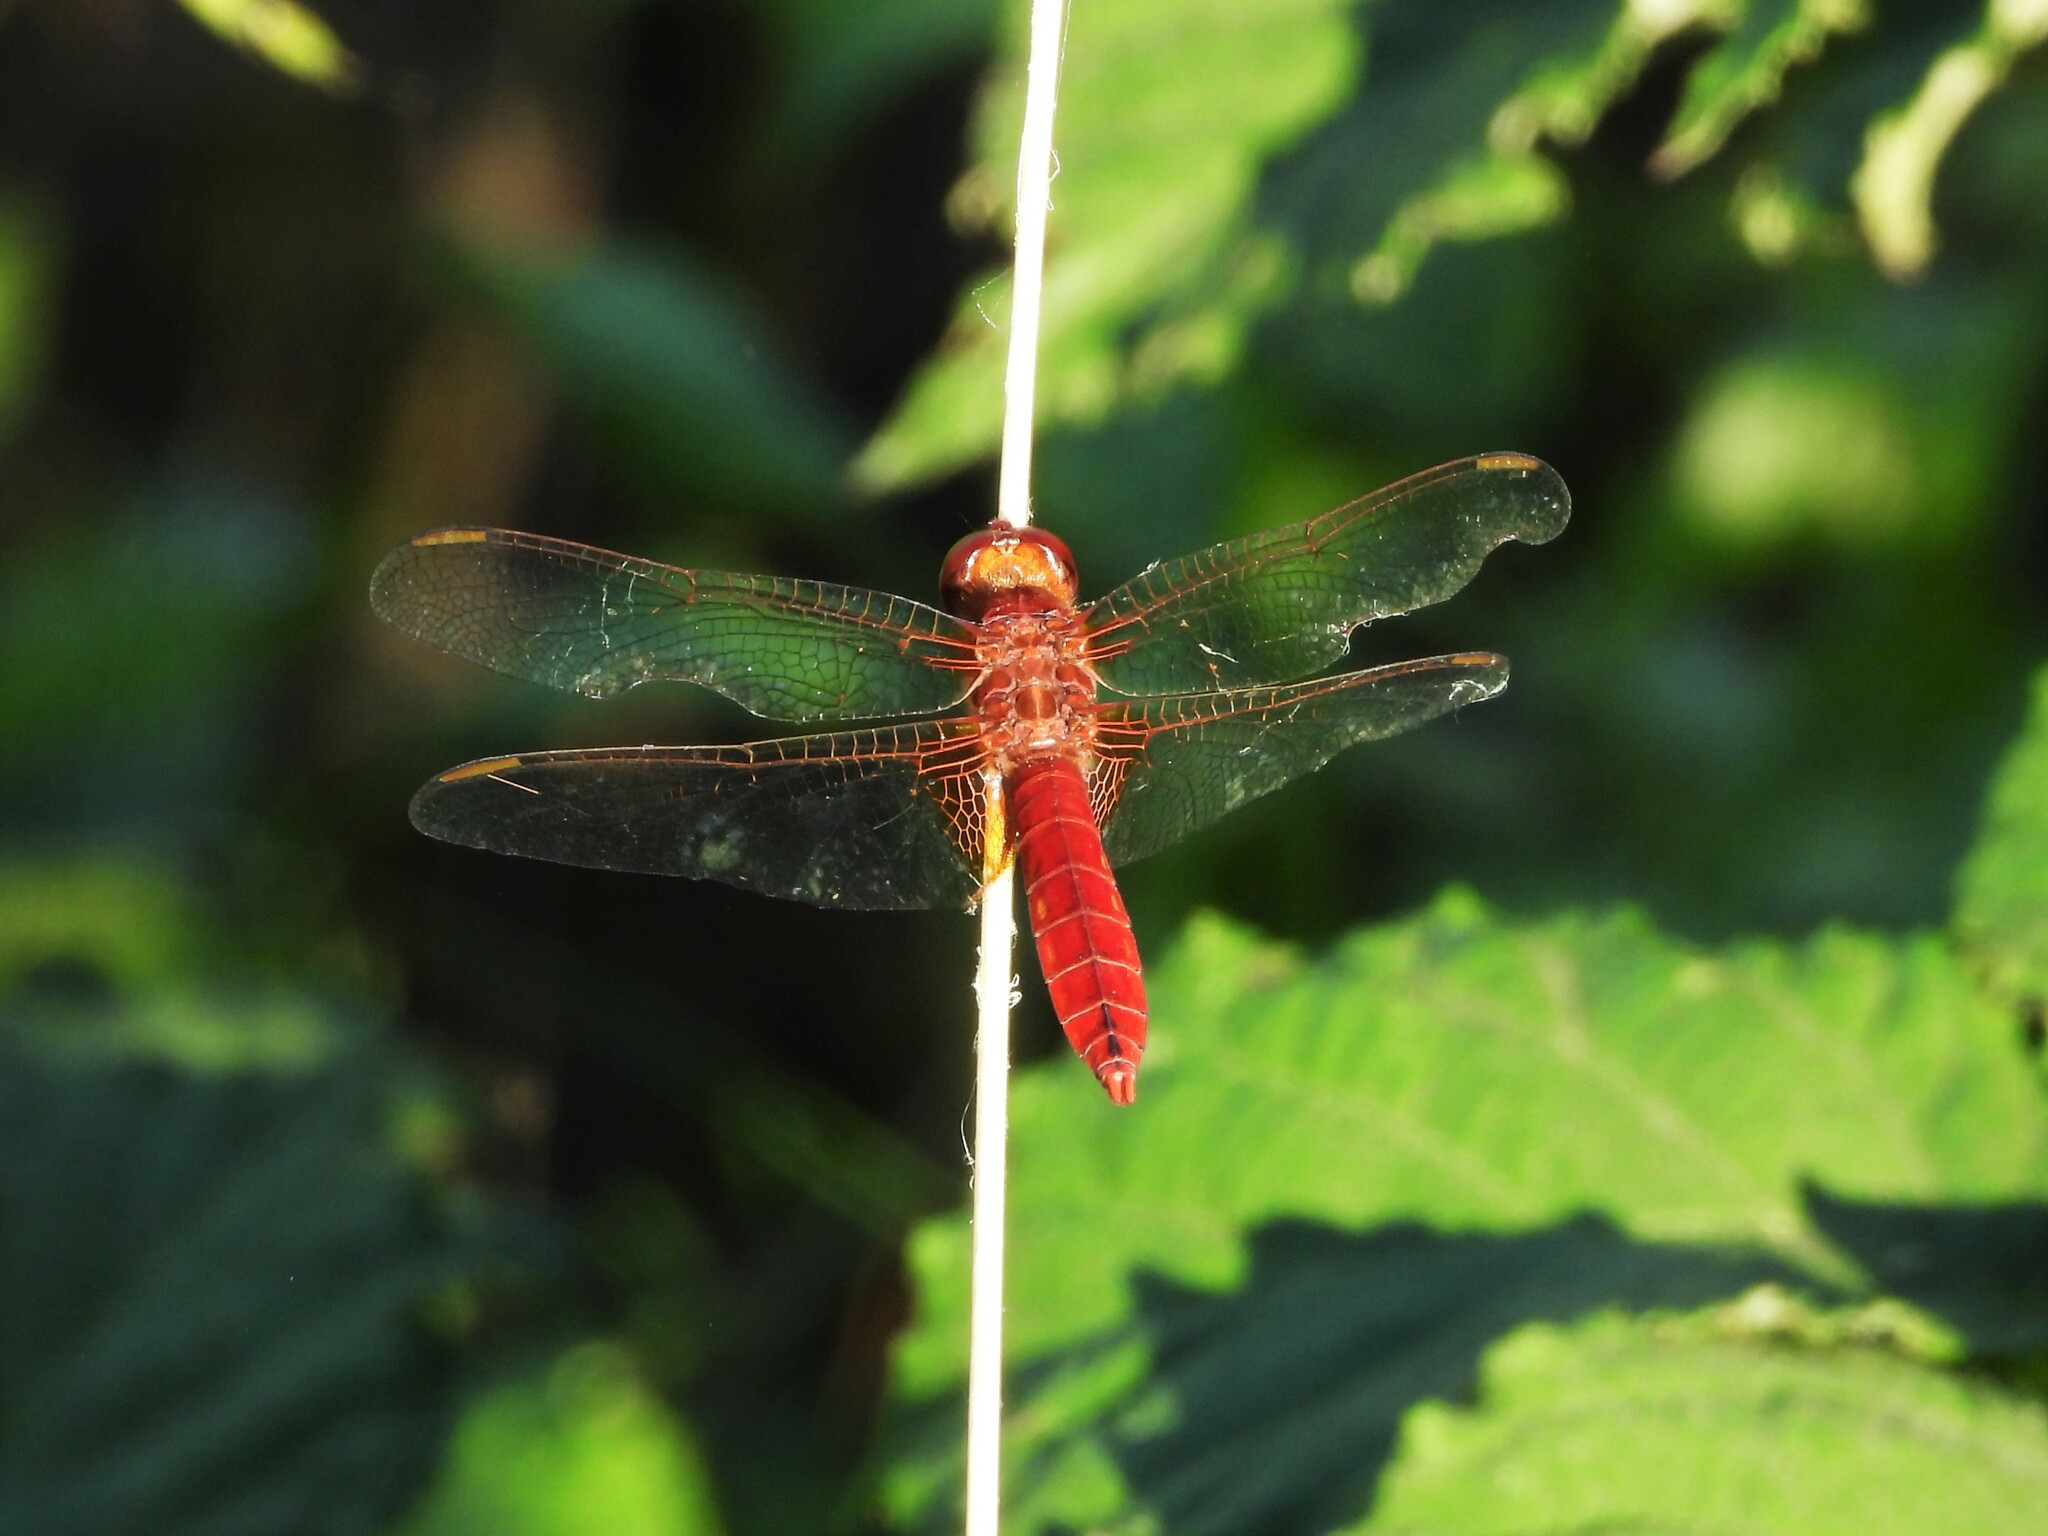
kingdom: Animalia
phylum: Arthropoda
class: Insecta
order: Odonata
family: Libellulidae
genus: Crocothemis
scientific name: Crocothemis erythraea
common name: Scarlet dragonfly
